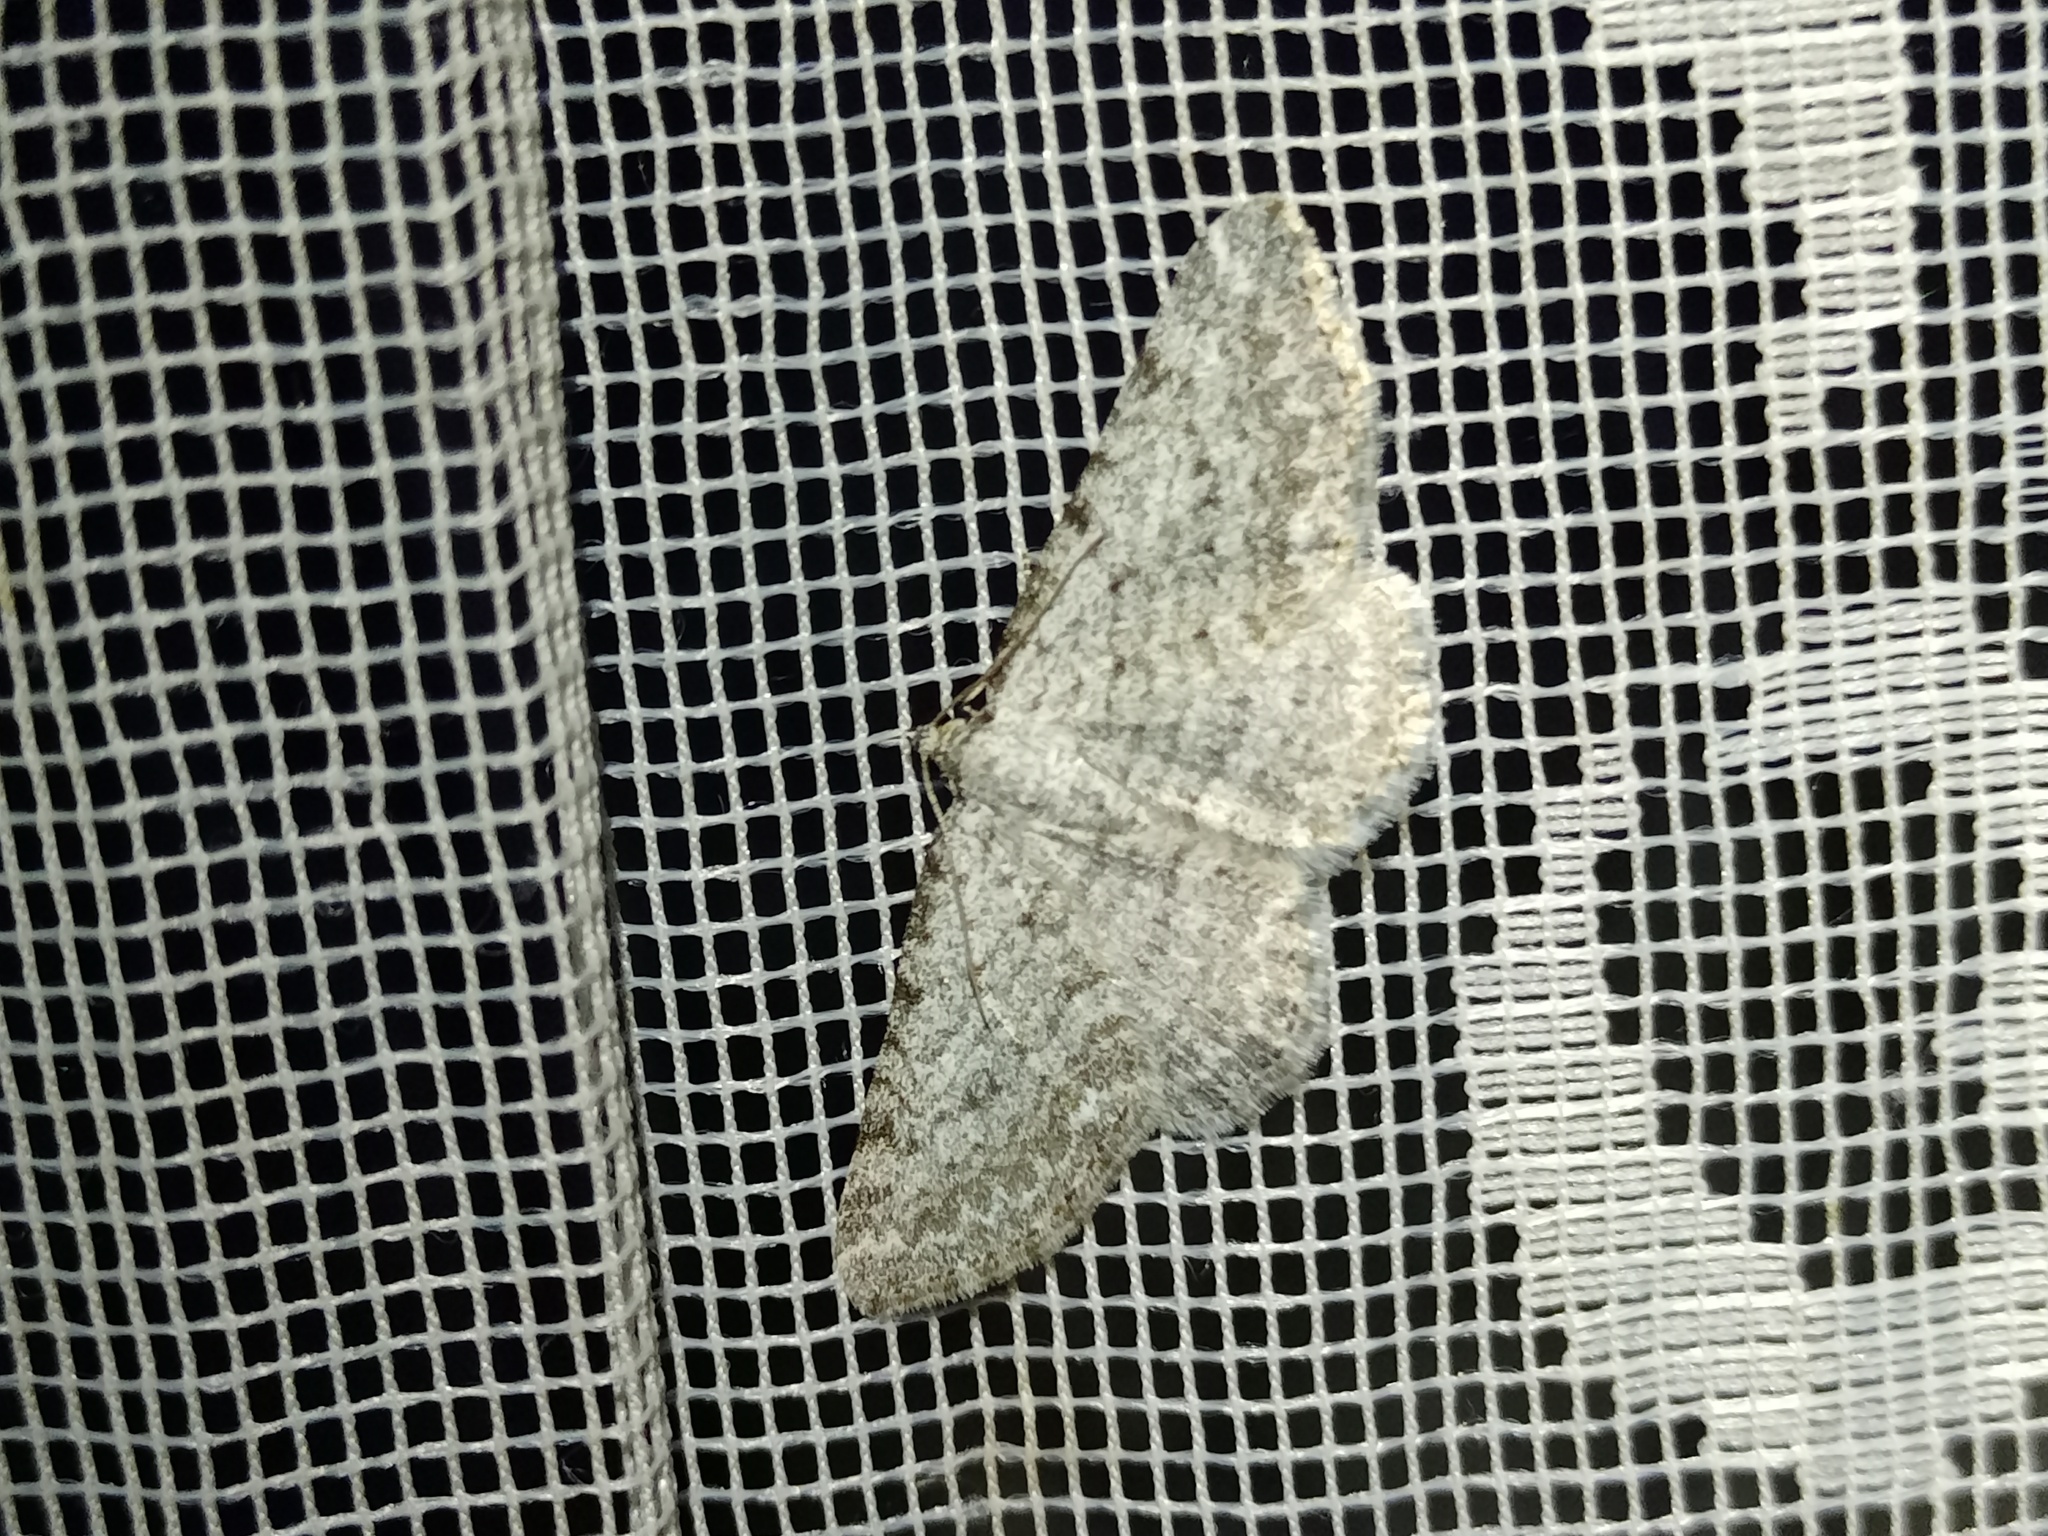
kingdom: Animalia
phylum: Arthropoda
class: Insecta
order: Lepidoptera
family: Geometridae
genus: Horisme
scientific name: Horisme calligraphata
